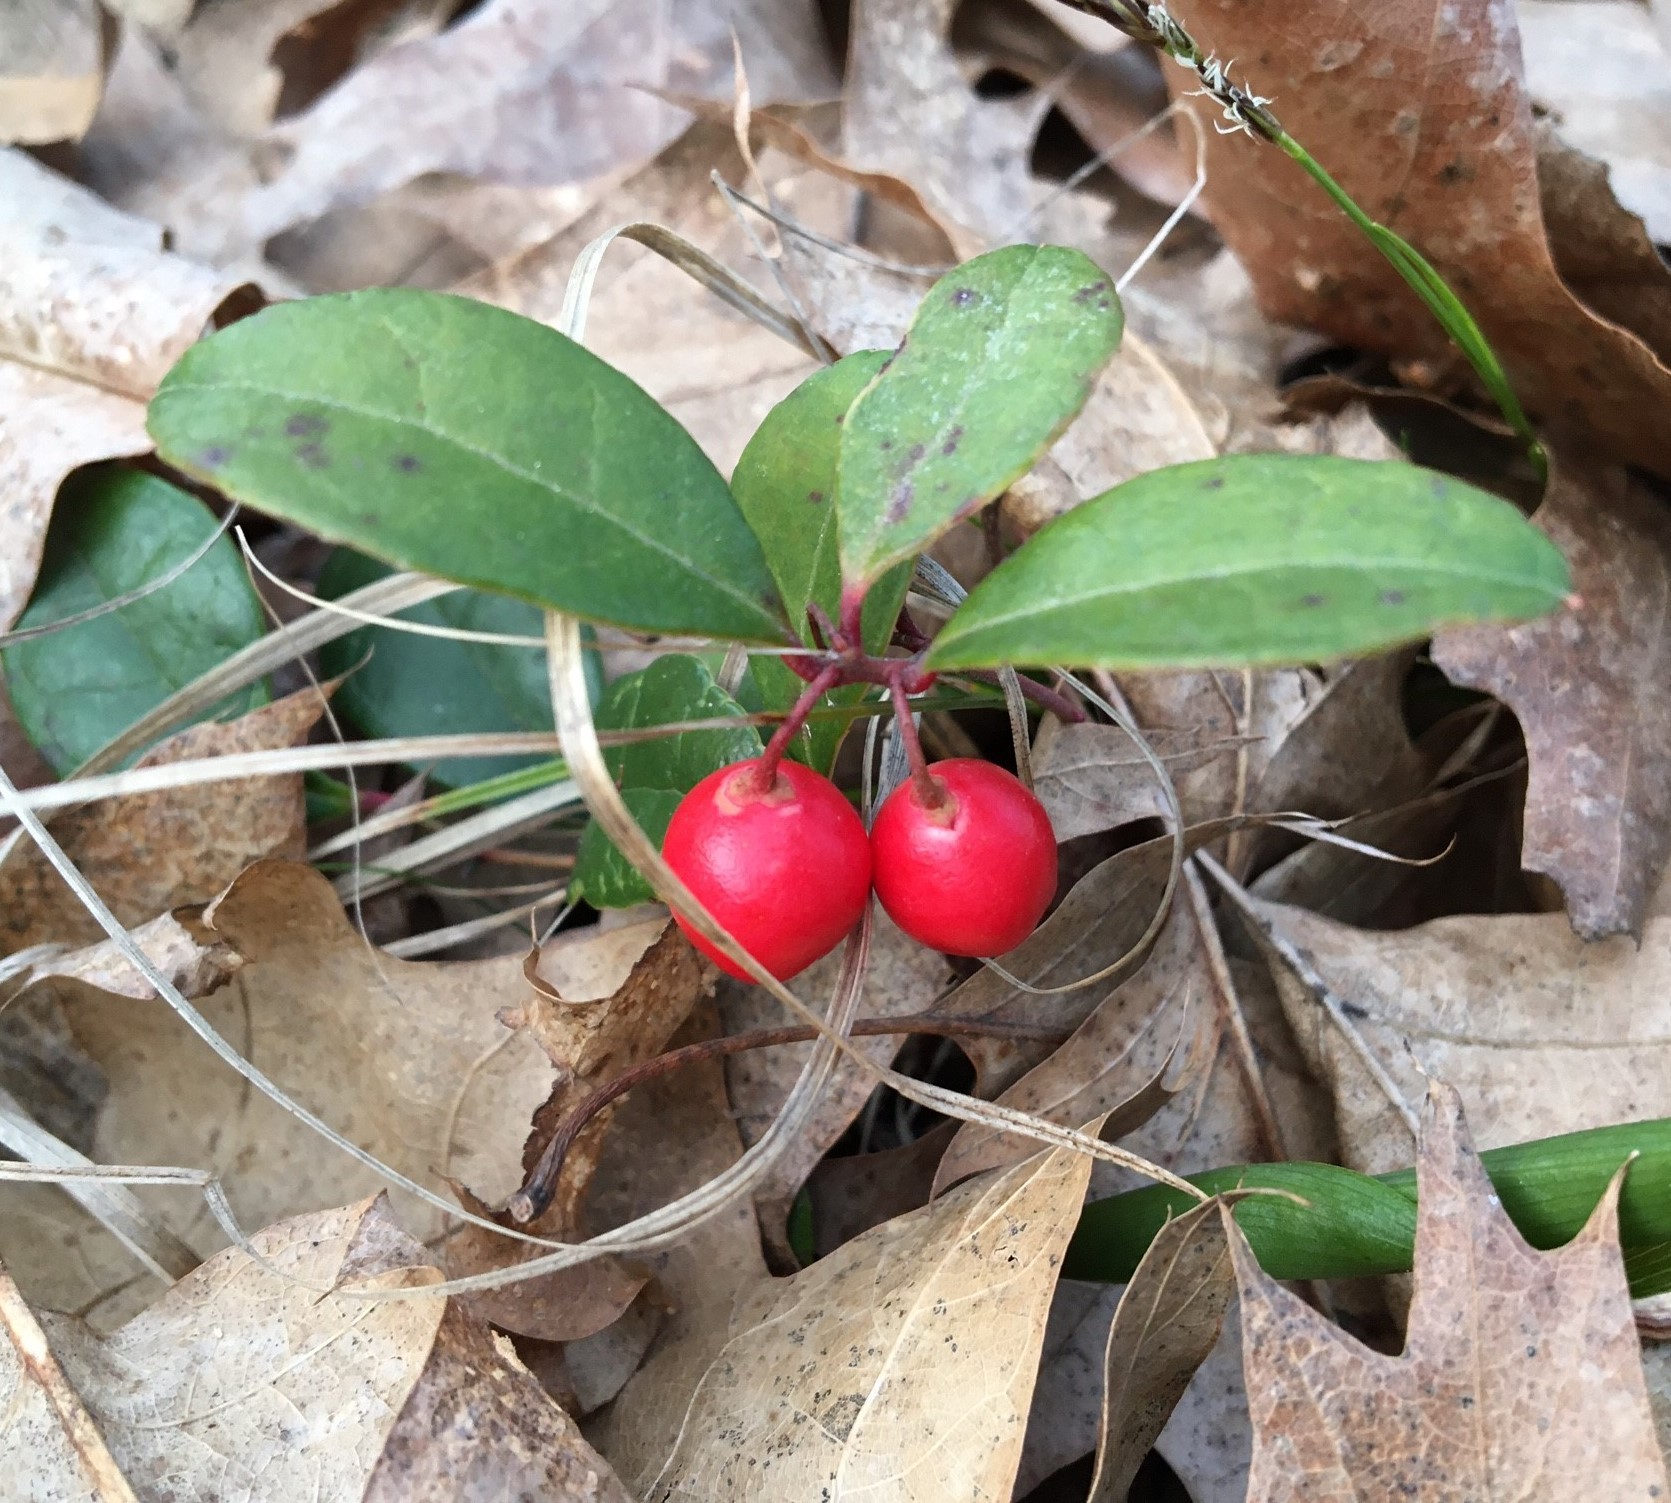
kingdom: Plantae
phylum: Tracheophyta
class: Magnoliopsida
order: Ericales
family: Ericaceae
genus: Gaultheria
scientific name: Gaultheria procumbens
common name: Checkerberry
